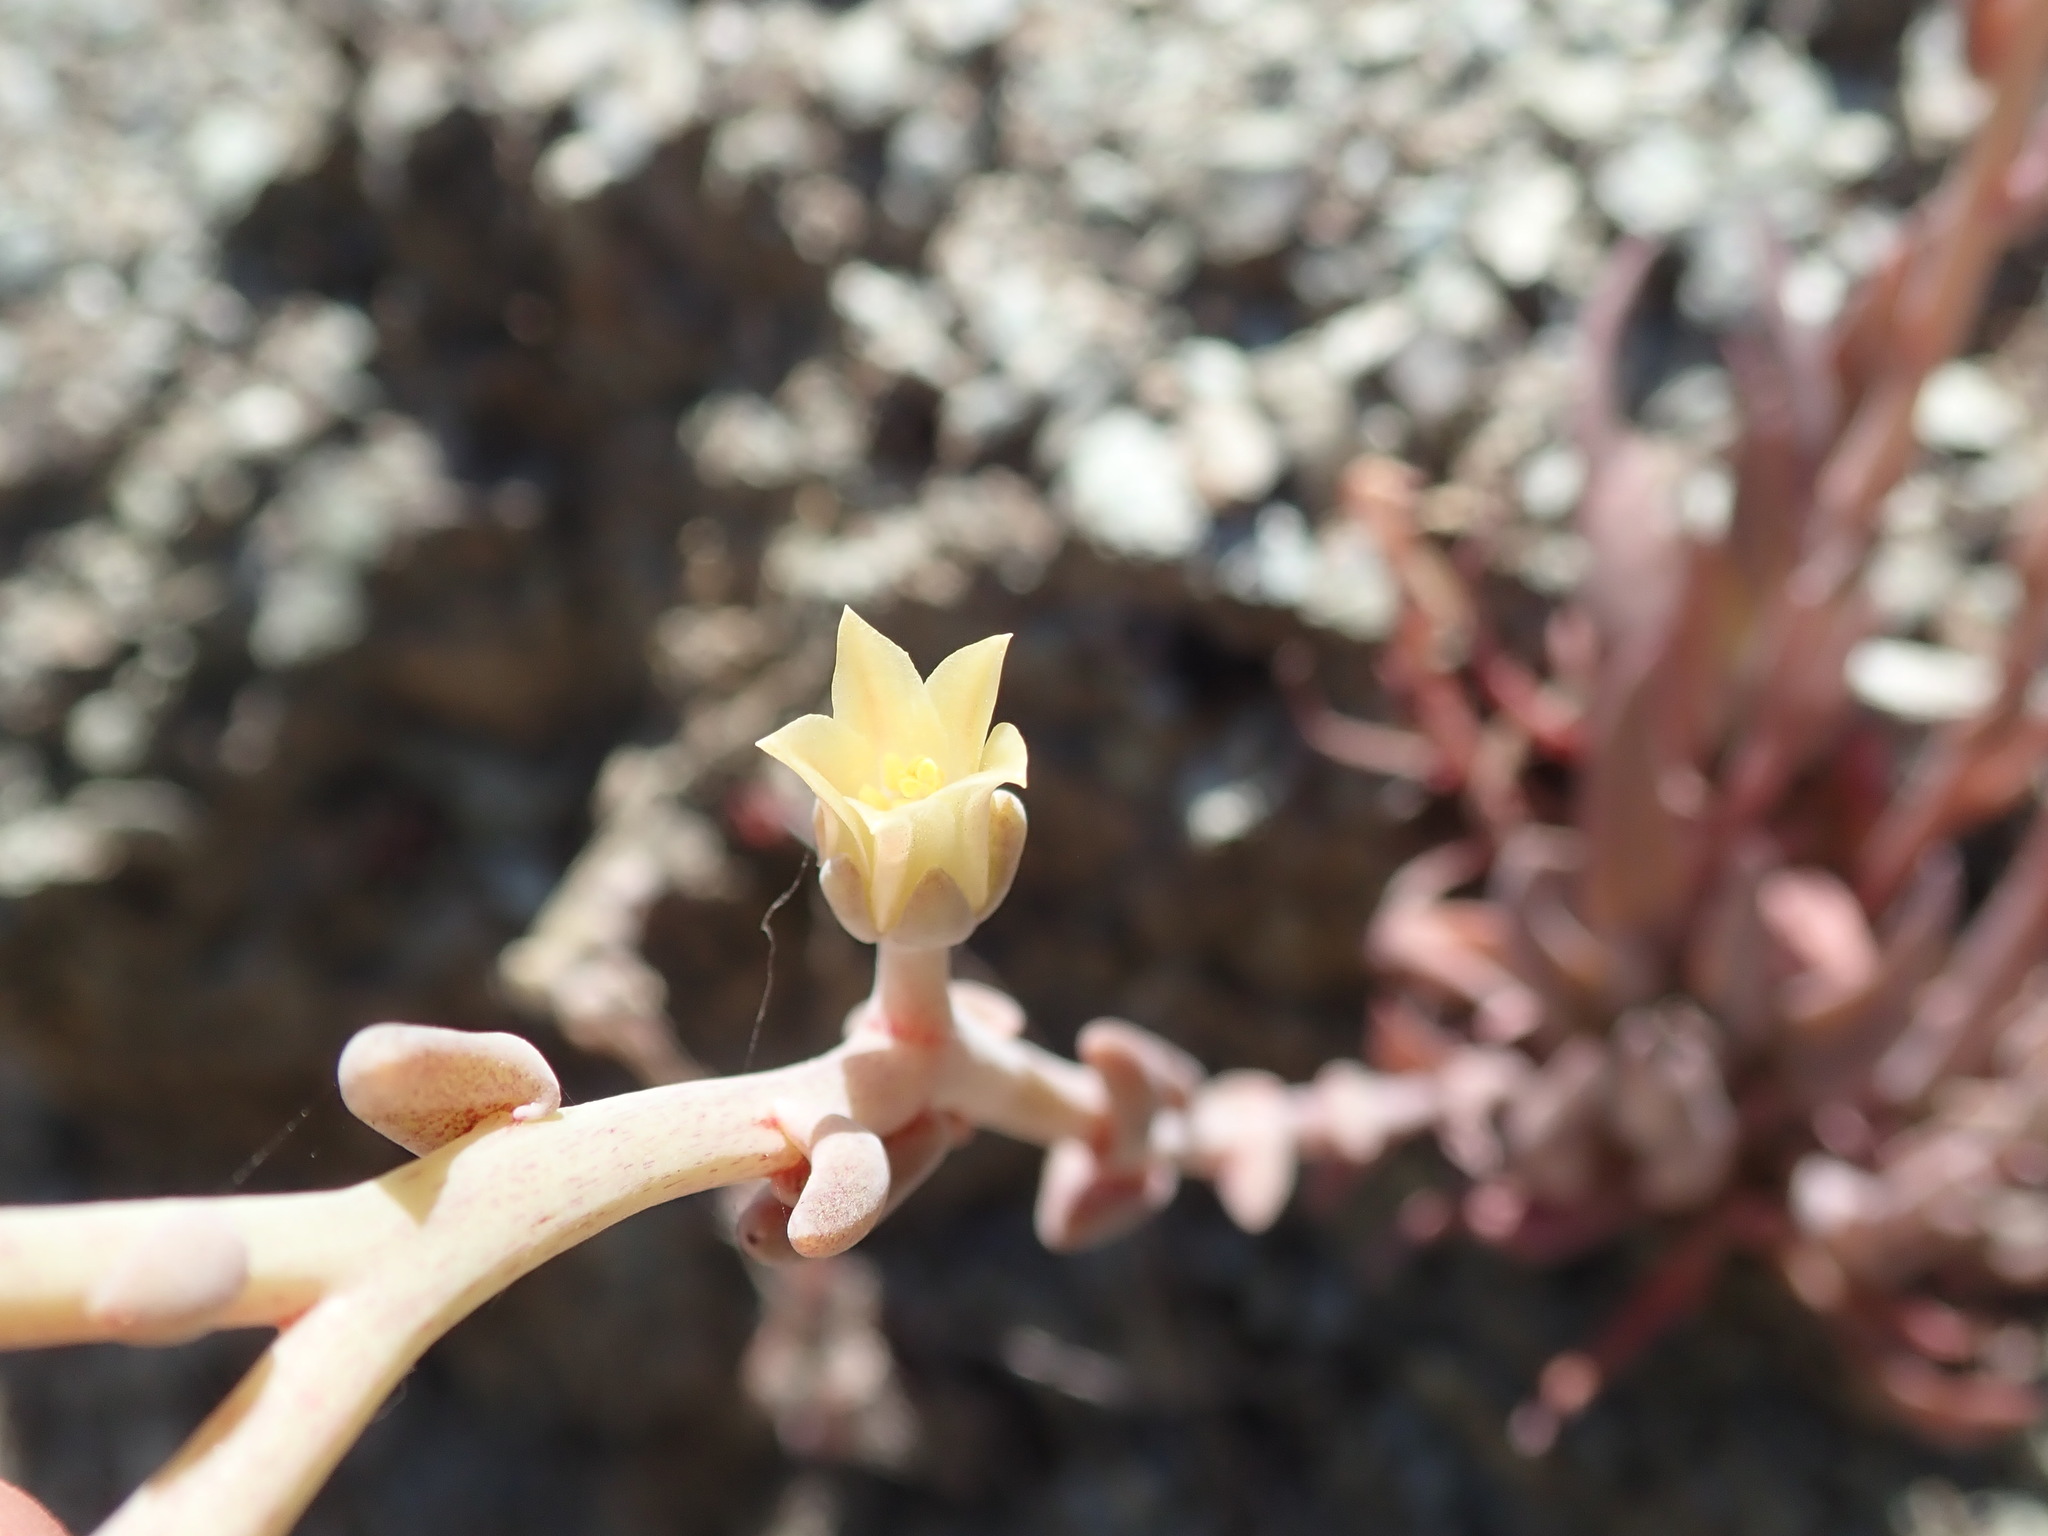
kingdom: Plantae
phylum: Tracheophyta
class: Magnoliopsida
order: Saxifragales
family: Crassulaceae
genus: Dudleya
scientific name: Dudleya abramsii
